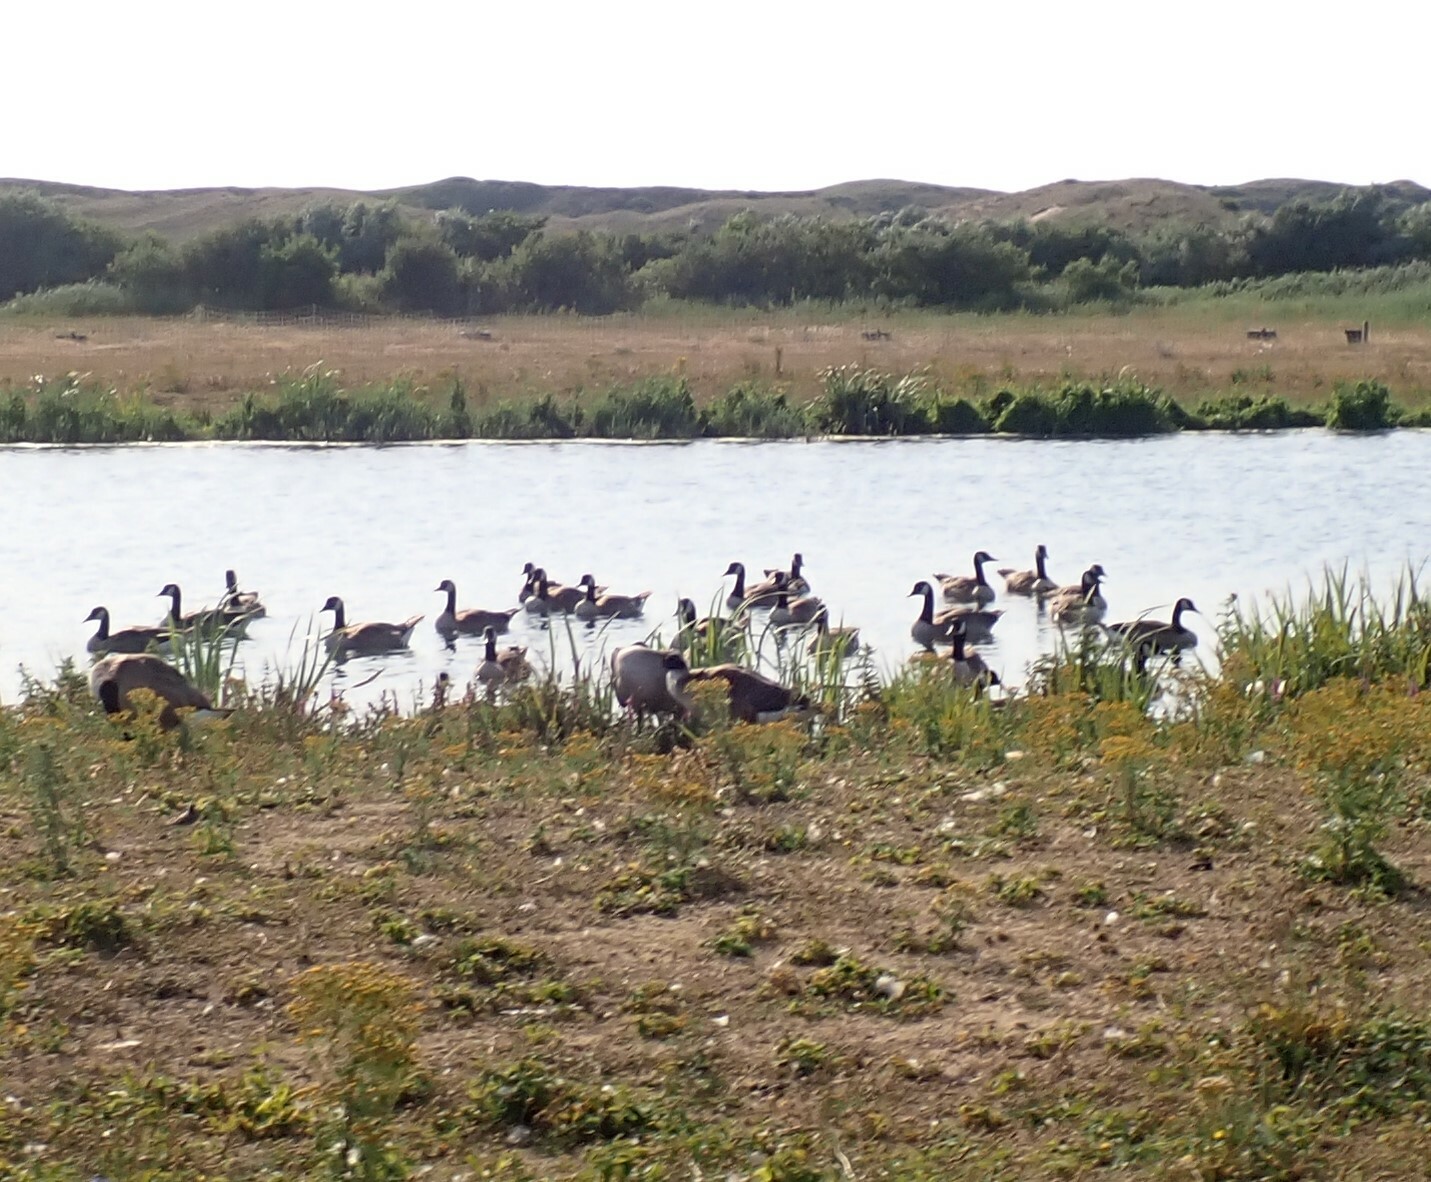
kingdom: Animalia
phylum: Chordata
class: Aves
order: Anseriformes
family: Anatidae
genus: Branta
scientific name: Branta canadensis
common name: Canada goose
